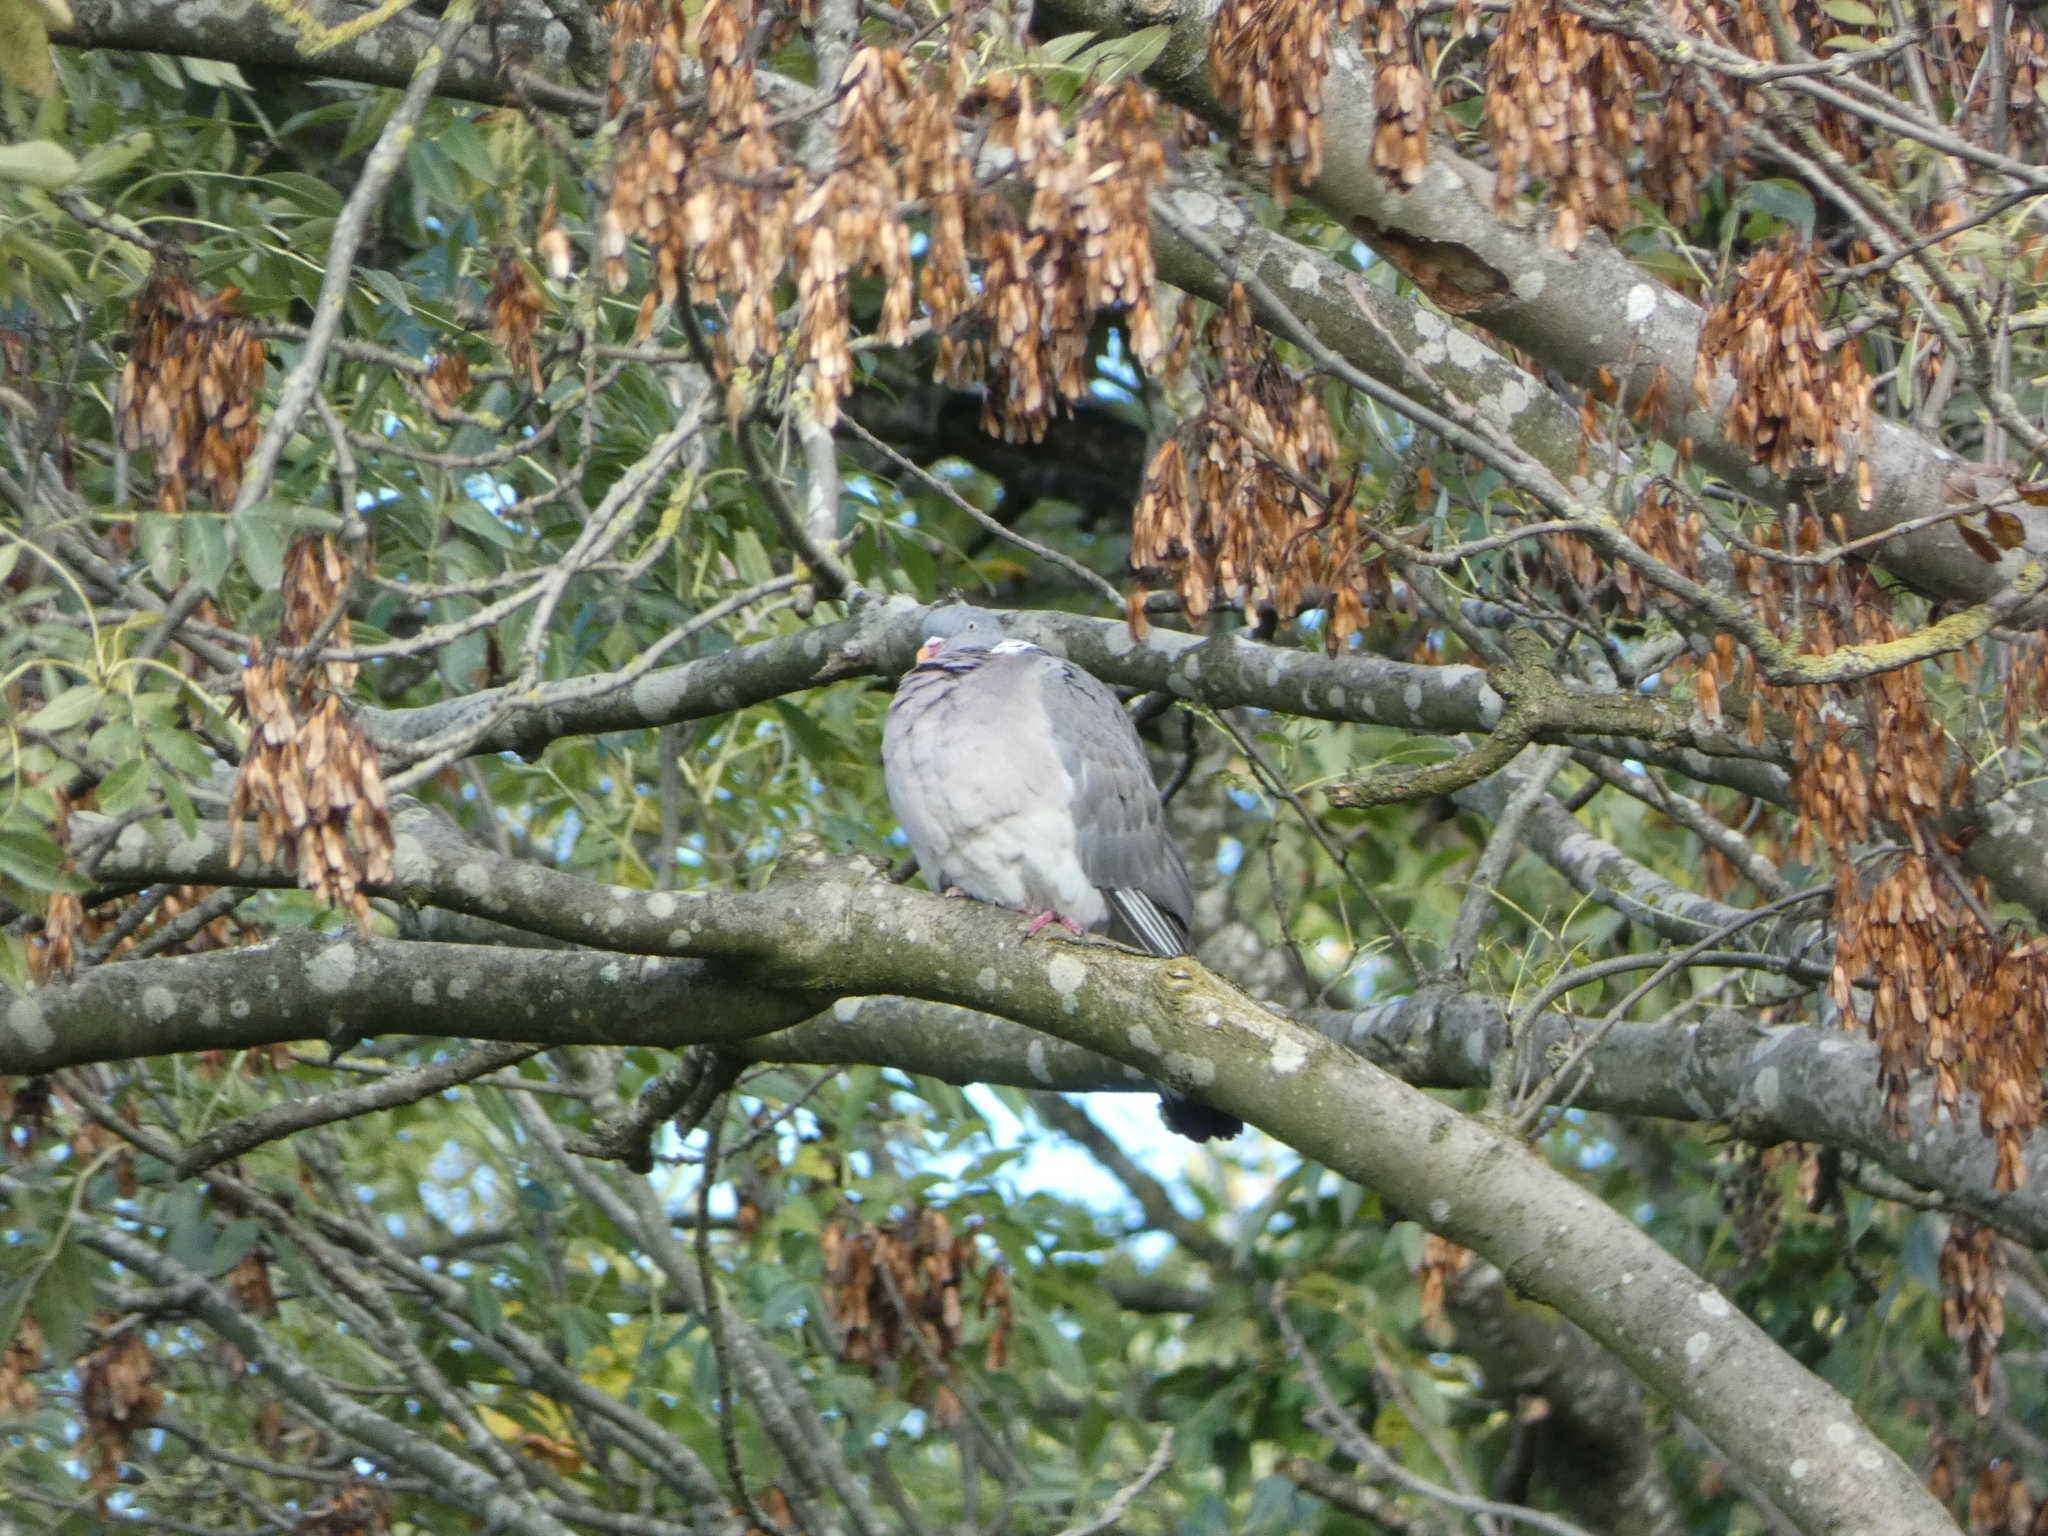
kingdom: Animalia
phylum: Chordata
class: Aves
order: Columbiformes
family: Columbidae
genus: Columba
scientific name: Columba palumbus
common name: Common wood pigeon
